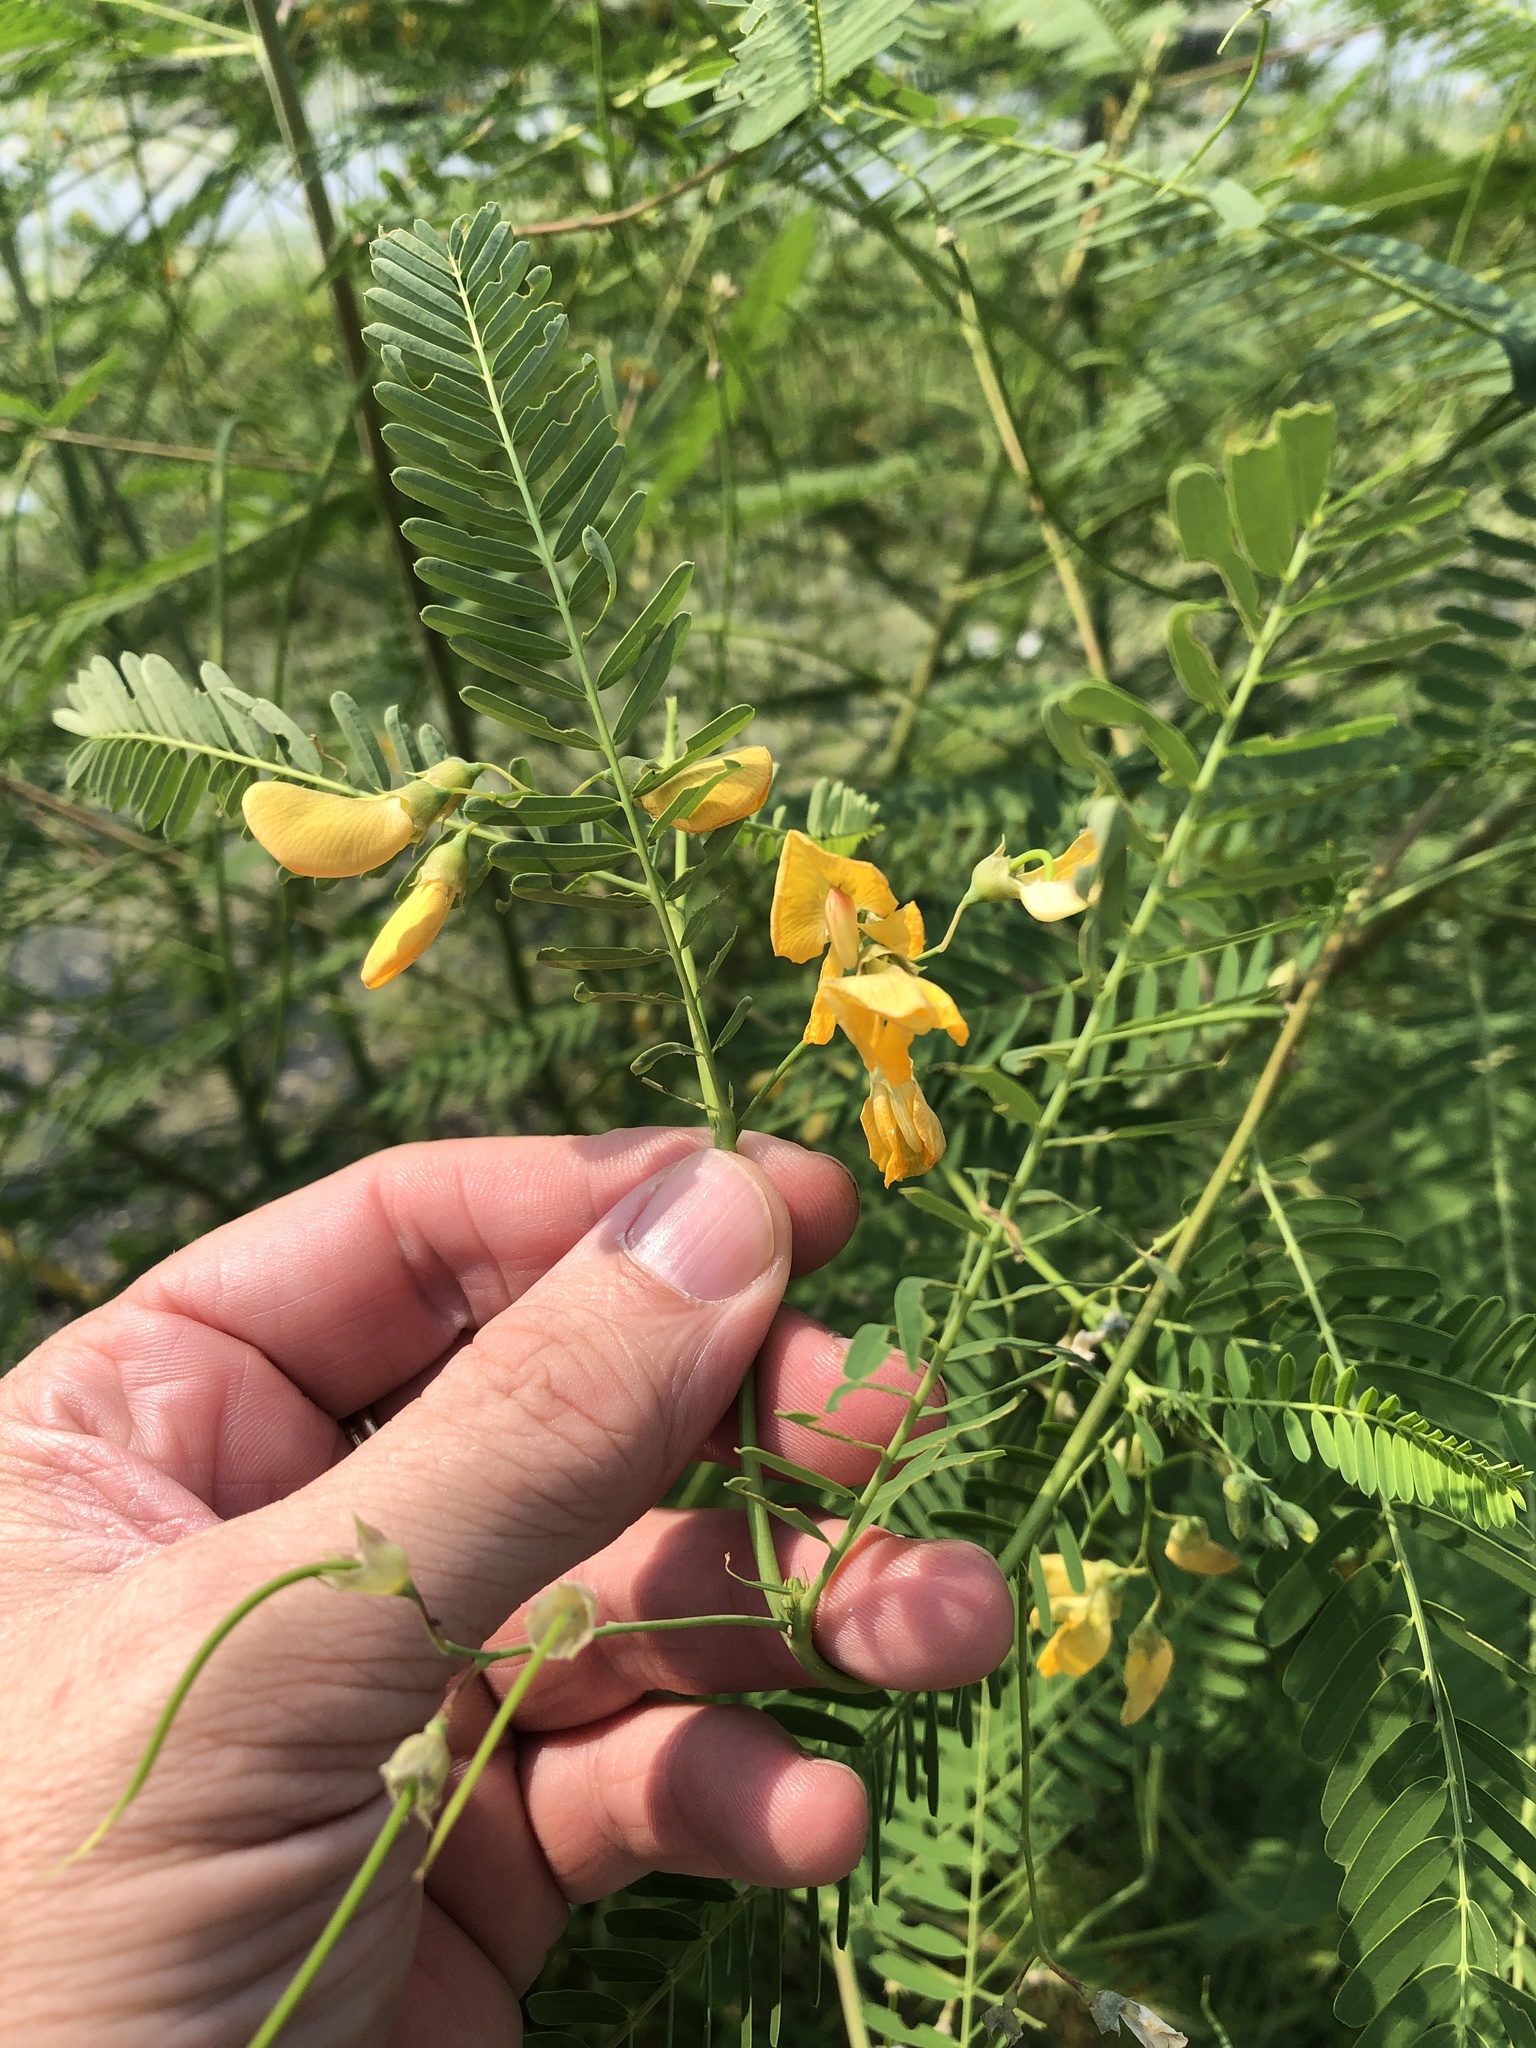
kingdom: Plantae
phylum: Tracheophyta
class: Magnoliopsida
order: Fabales
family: Fabaceae
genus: Sesbania
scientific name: Sesbania herbacea
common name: Bigpod sesbania
